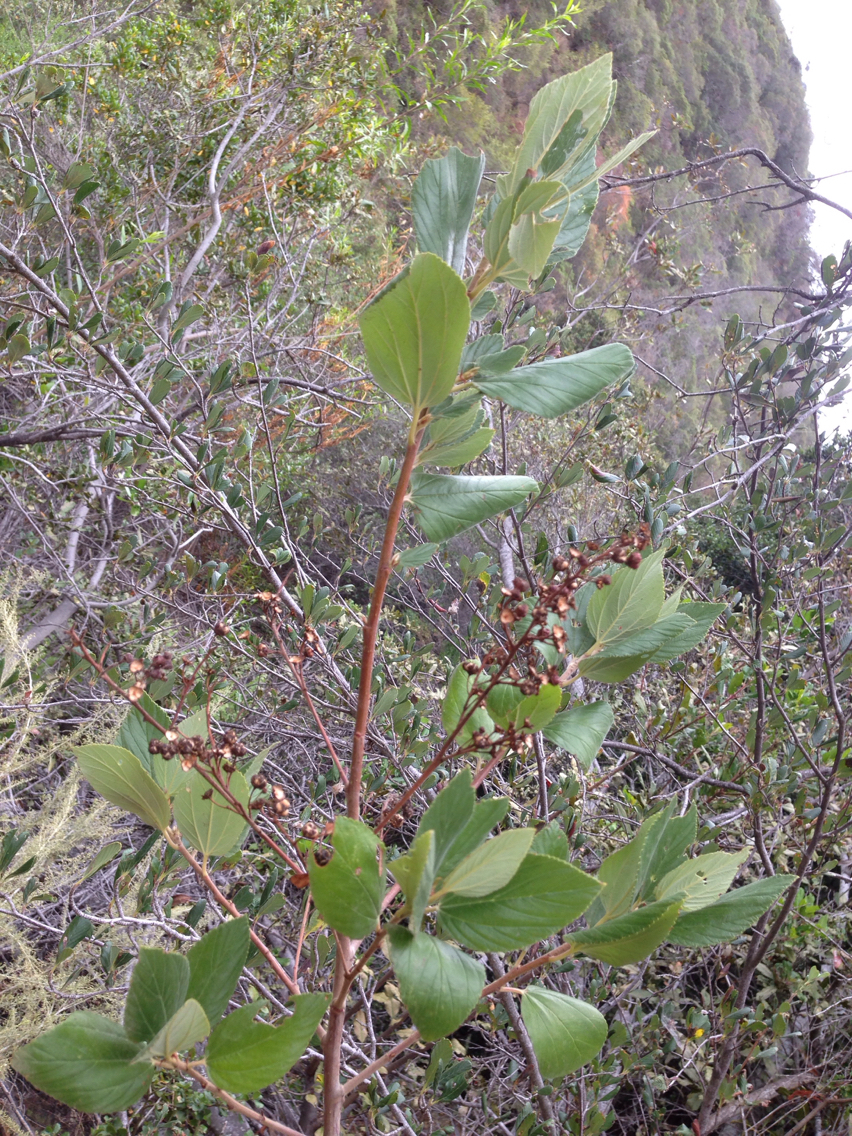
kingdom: Plantae
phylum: Tracheophyta
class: Magnoliopsida
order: Rosales
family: Rhamnaceae
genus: Ceanothus
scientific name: Ceanothus arboreus
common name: Catalina mountain-lilac
